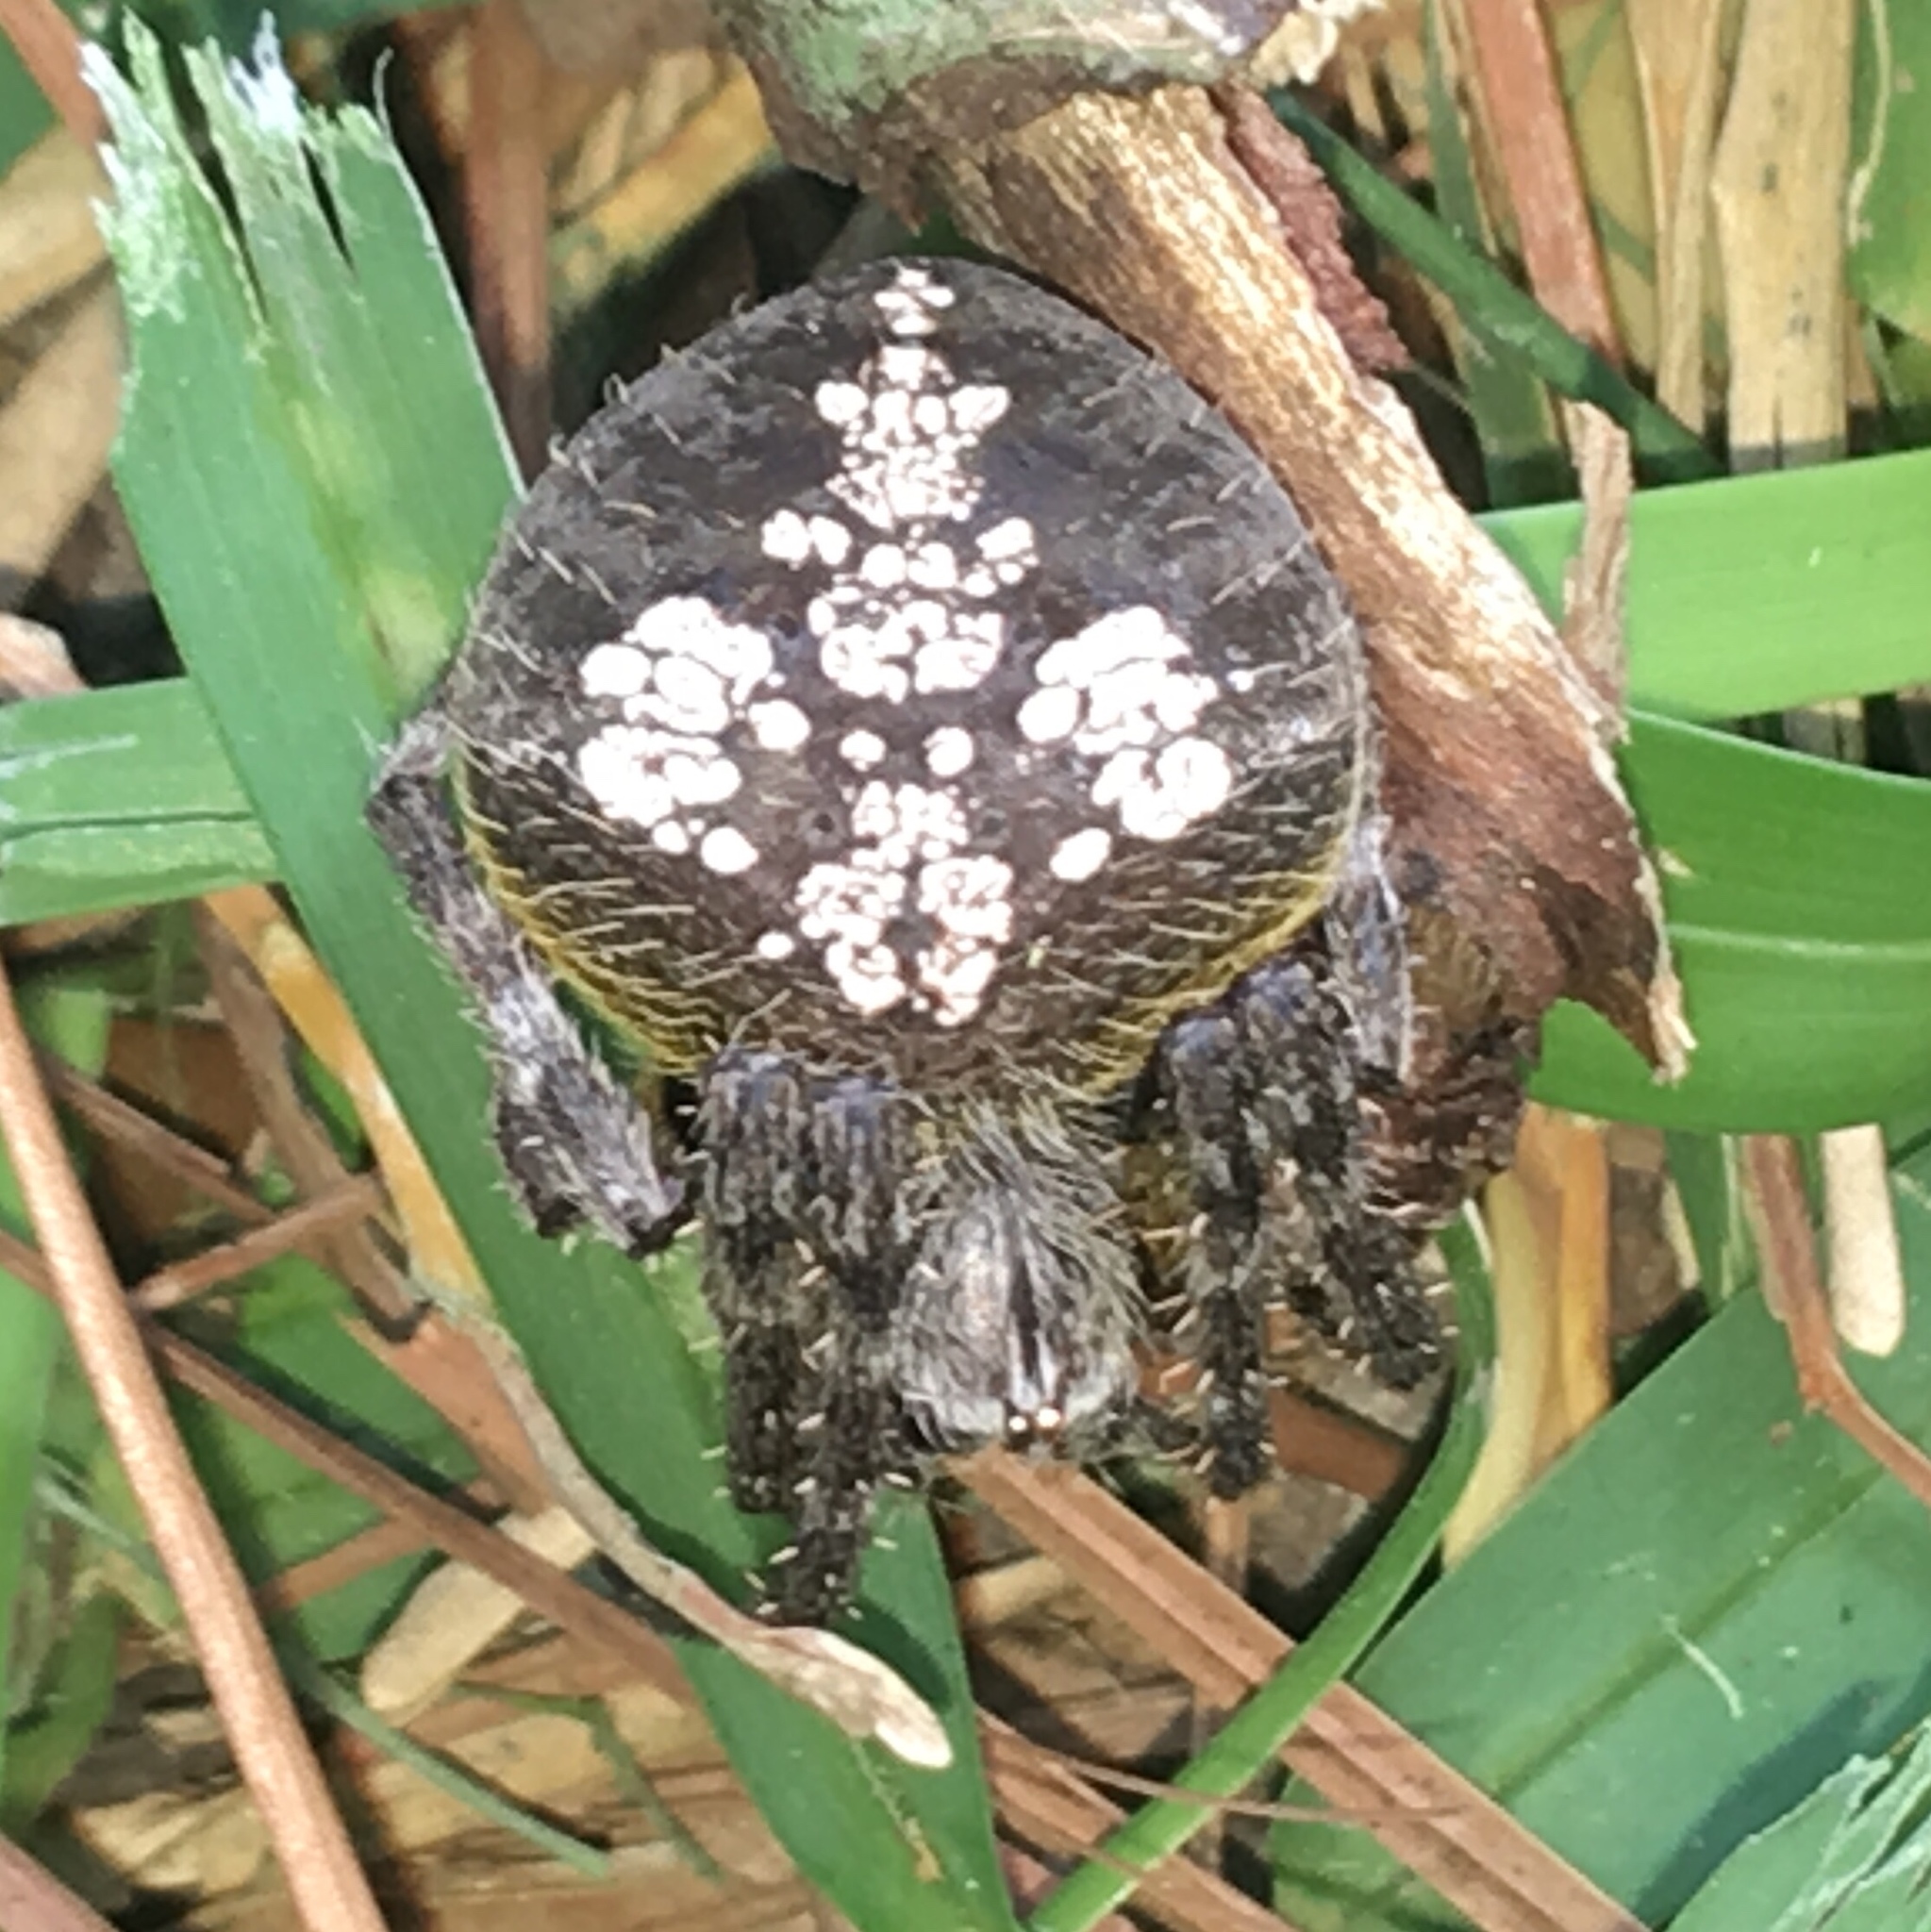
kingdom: Animalia
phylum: Arthropoda
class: Arachnida
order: Araneae
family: Araneidae
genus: Eriophora
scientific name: Eriophora ravilla
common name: Orb weavers
